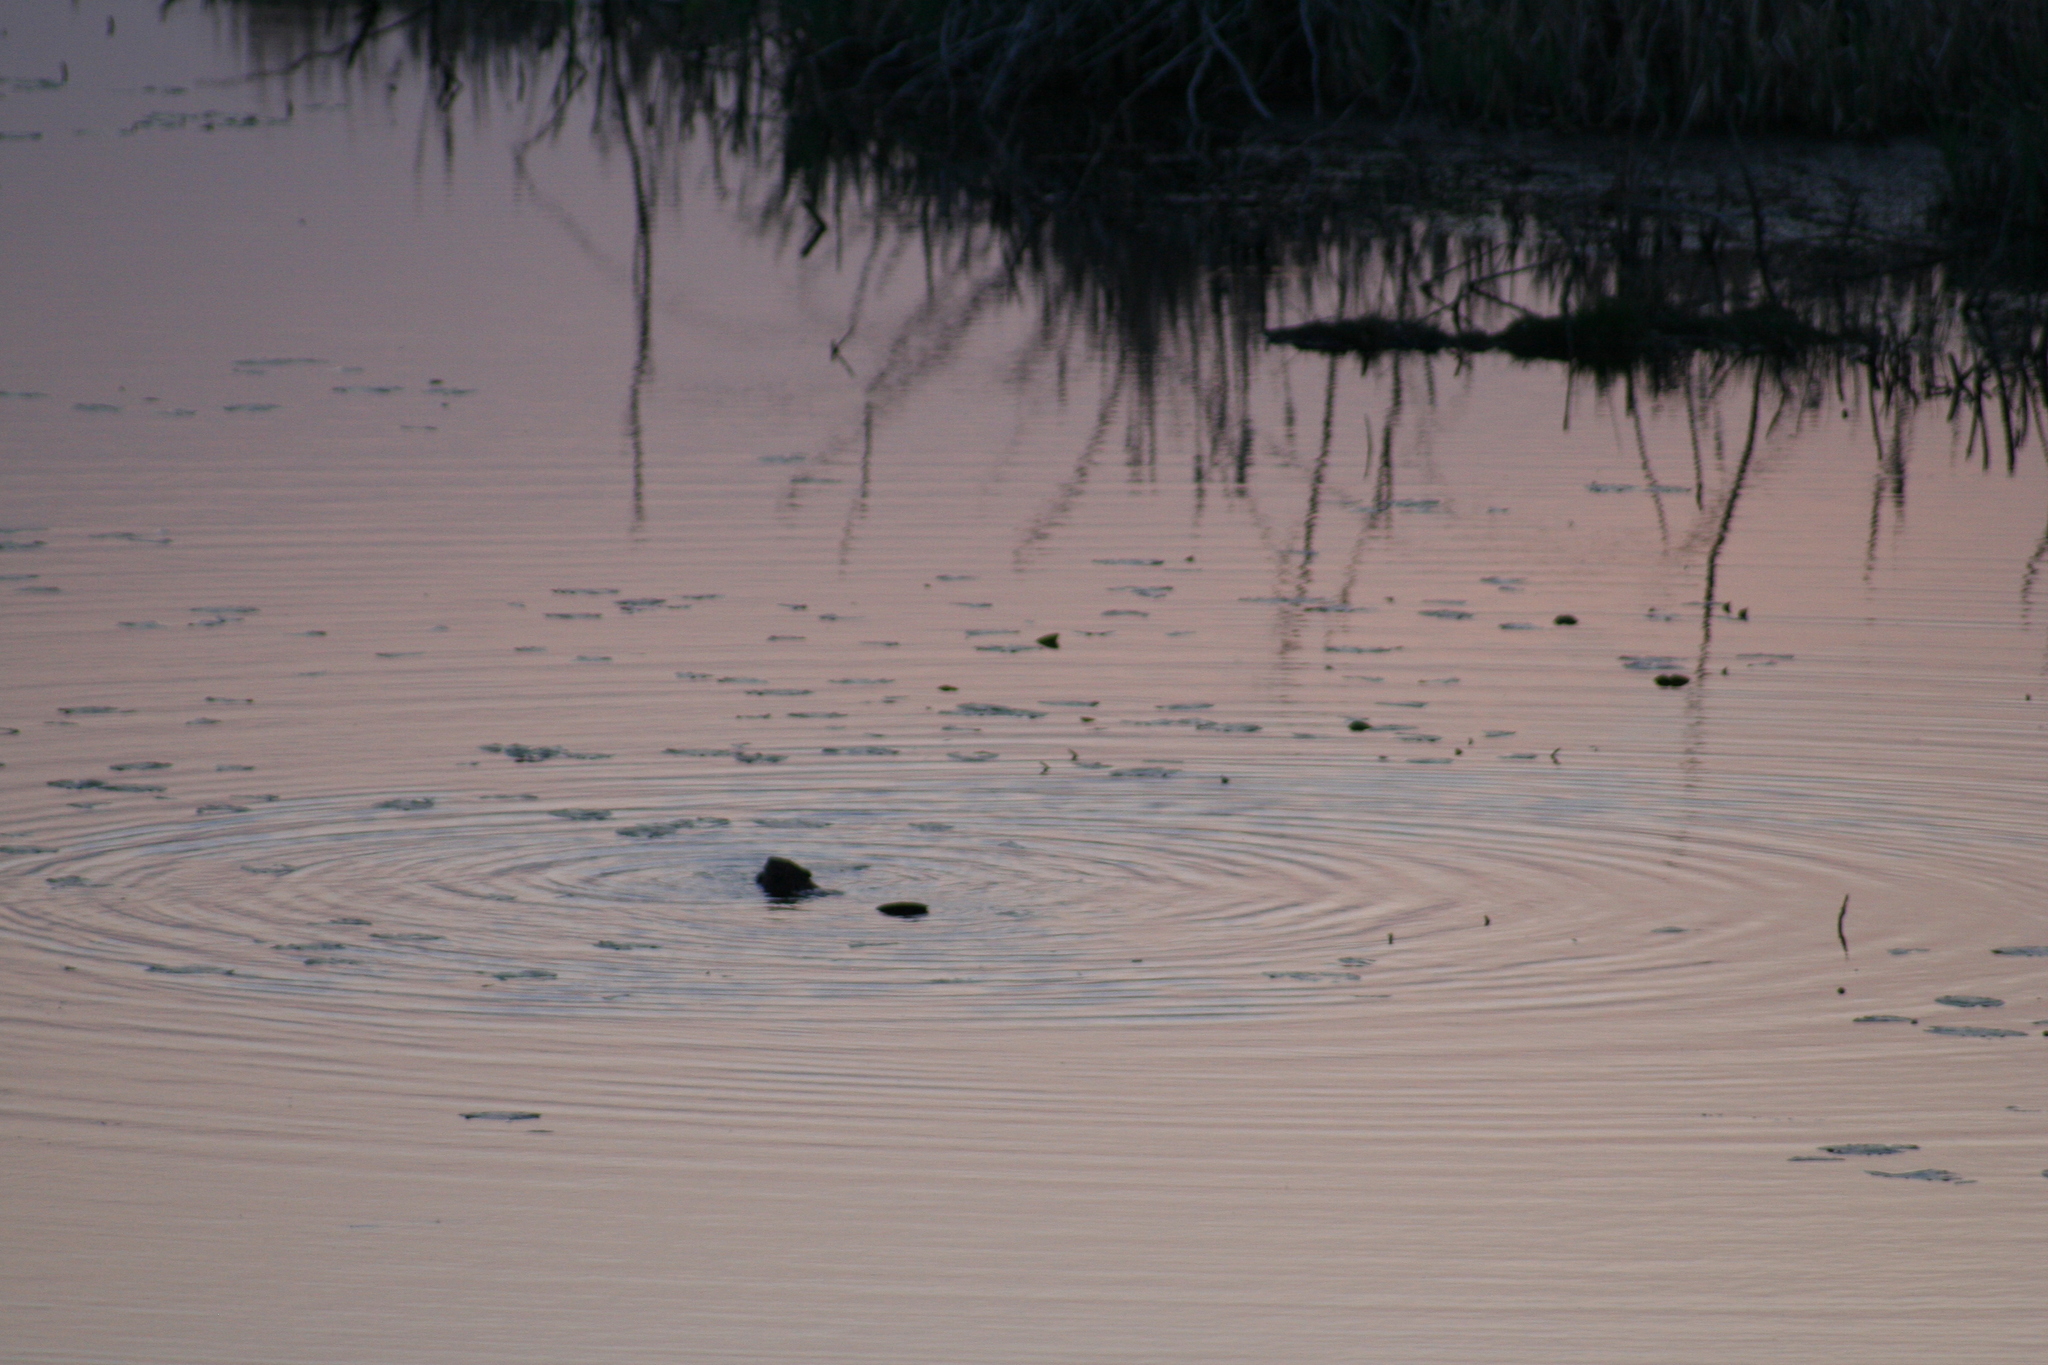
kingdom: Animalia
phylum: Chordata
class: Mammalia
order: Rodentia
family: Castoridae
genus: Castor
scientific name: Castor canadensis
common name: American beaver
